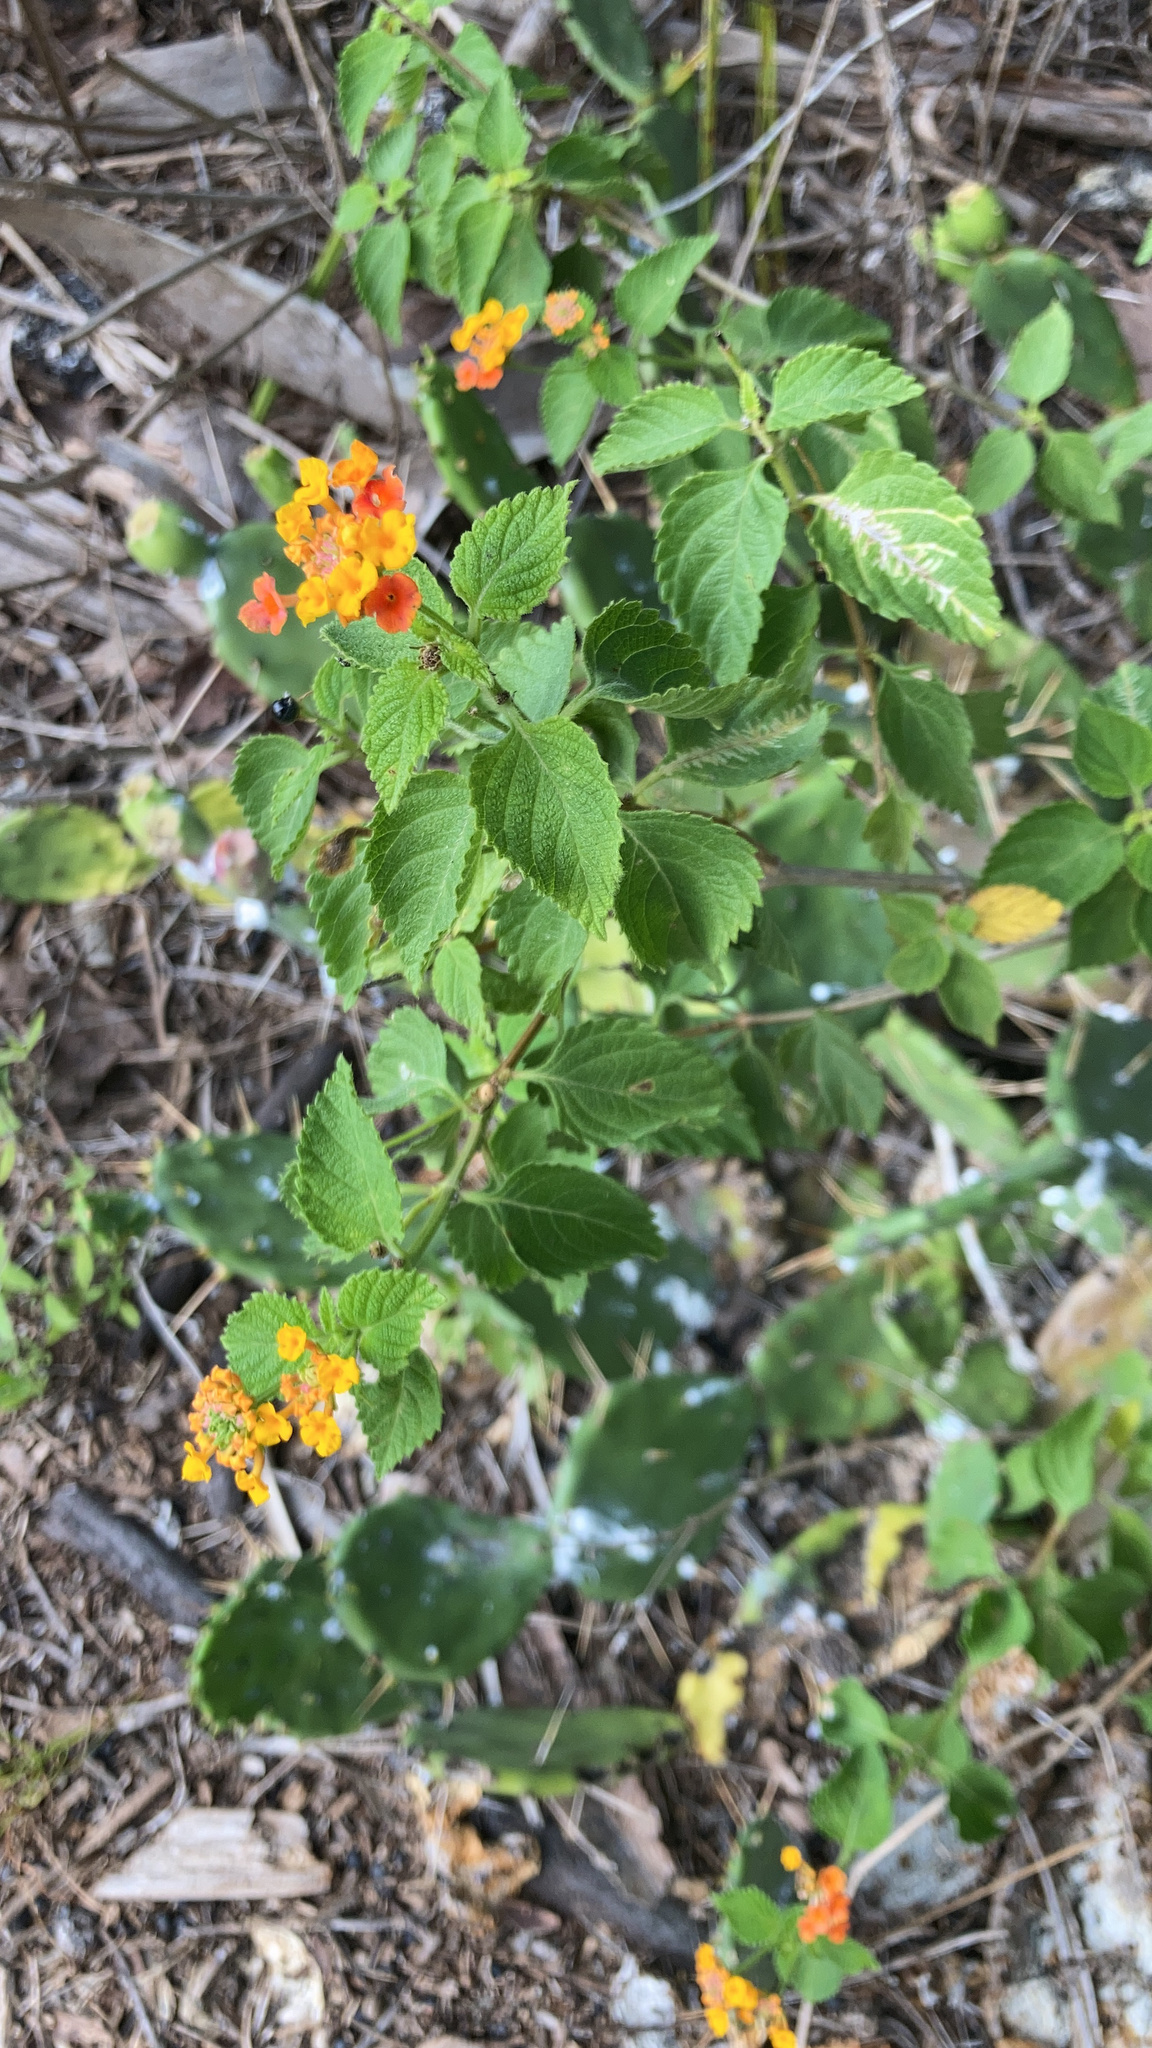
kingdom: Plantae
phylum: Tracheophyta
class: Magnoliopsida
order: Lamiales
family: Verbenaceae
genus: Lantana
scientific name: Lantana camara
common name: Lantana
